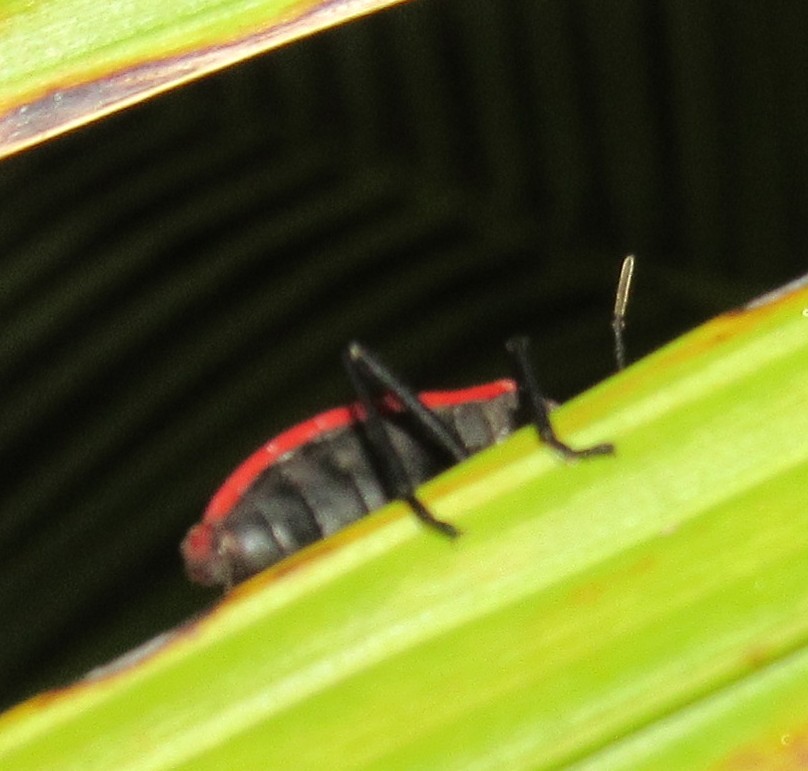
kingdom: Animalia
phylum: Arthropoda
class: Insecta
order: Hemiptera
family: Largidae
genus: Largus
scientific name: Largus rufipennis
